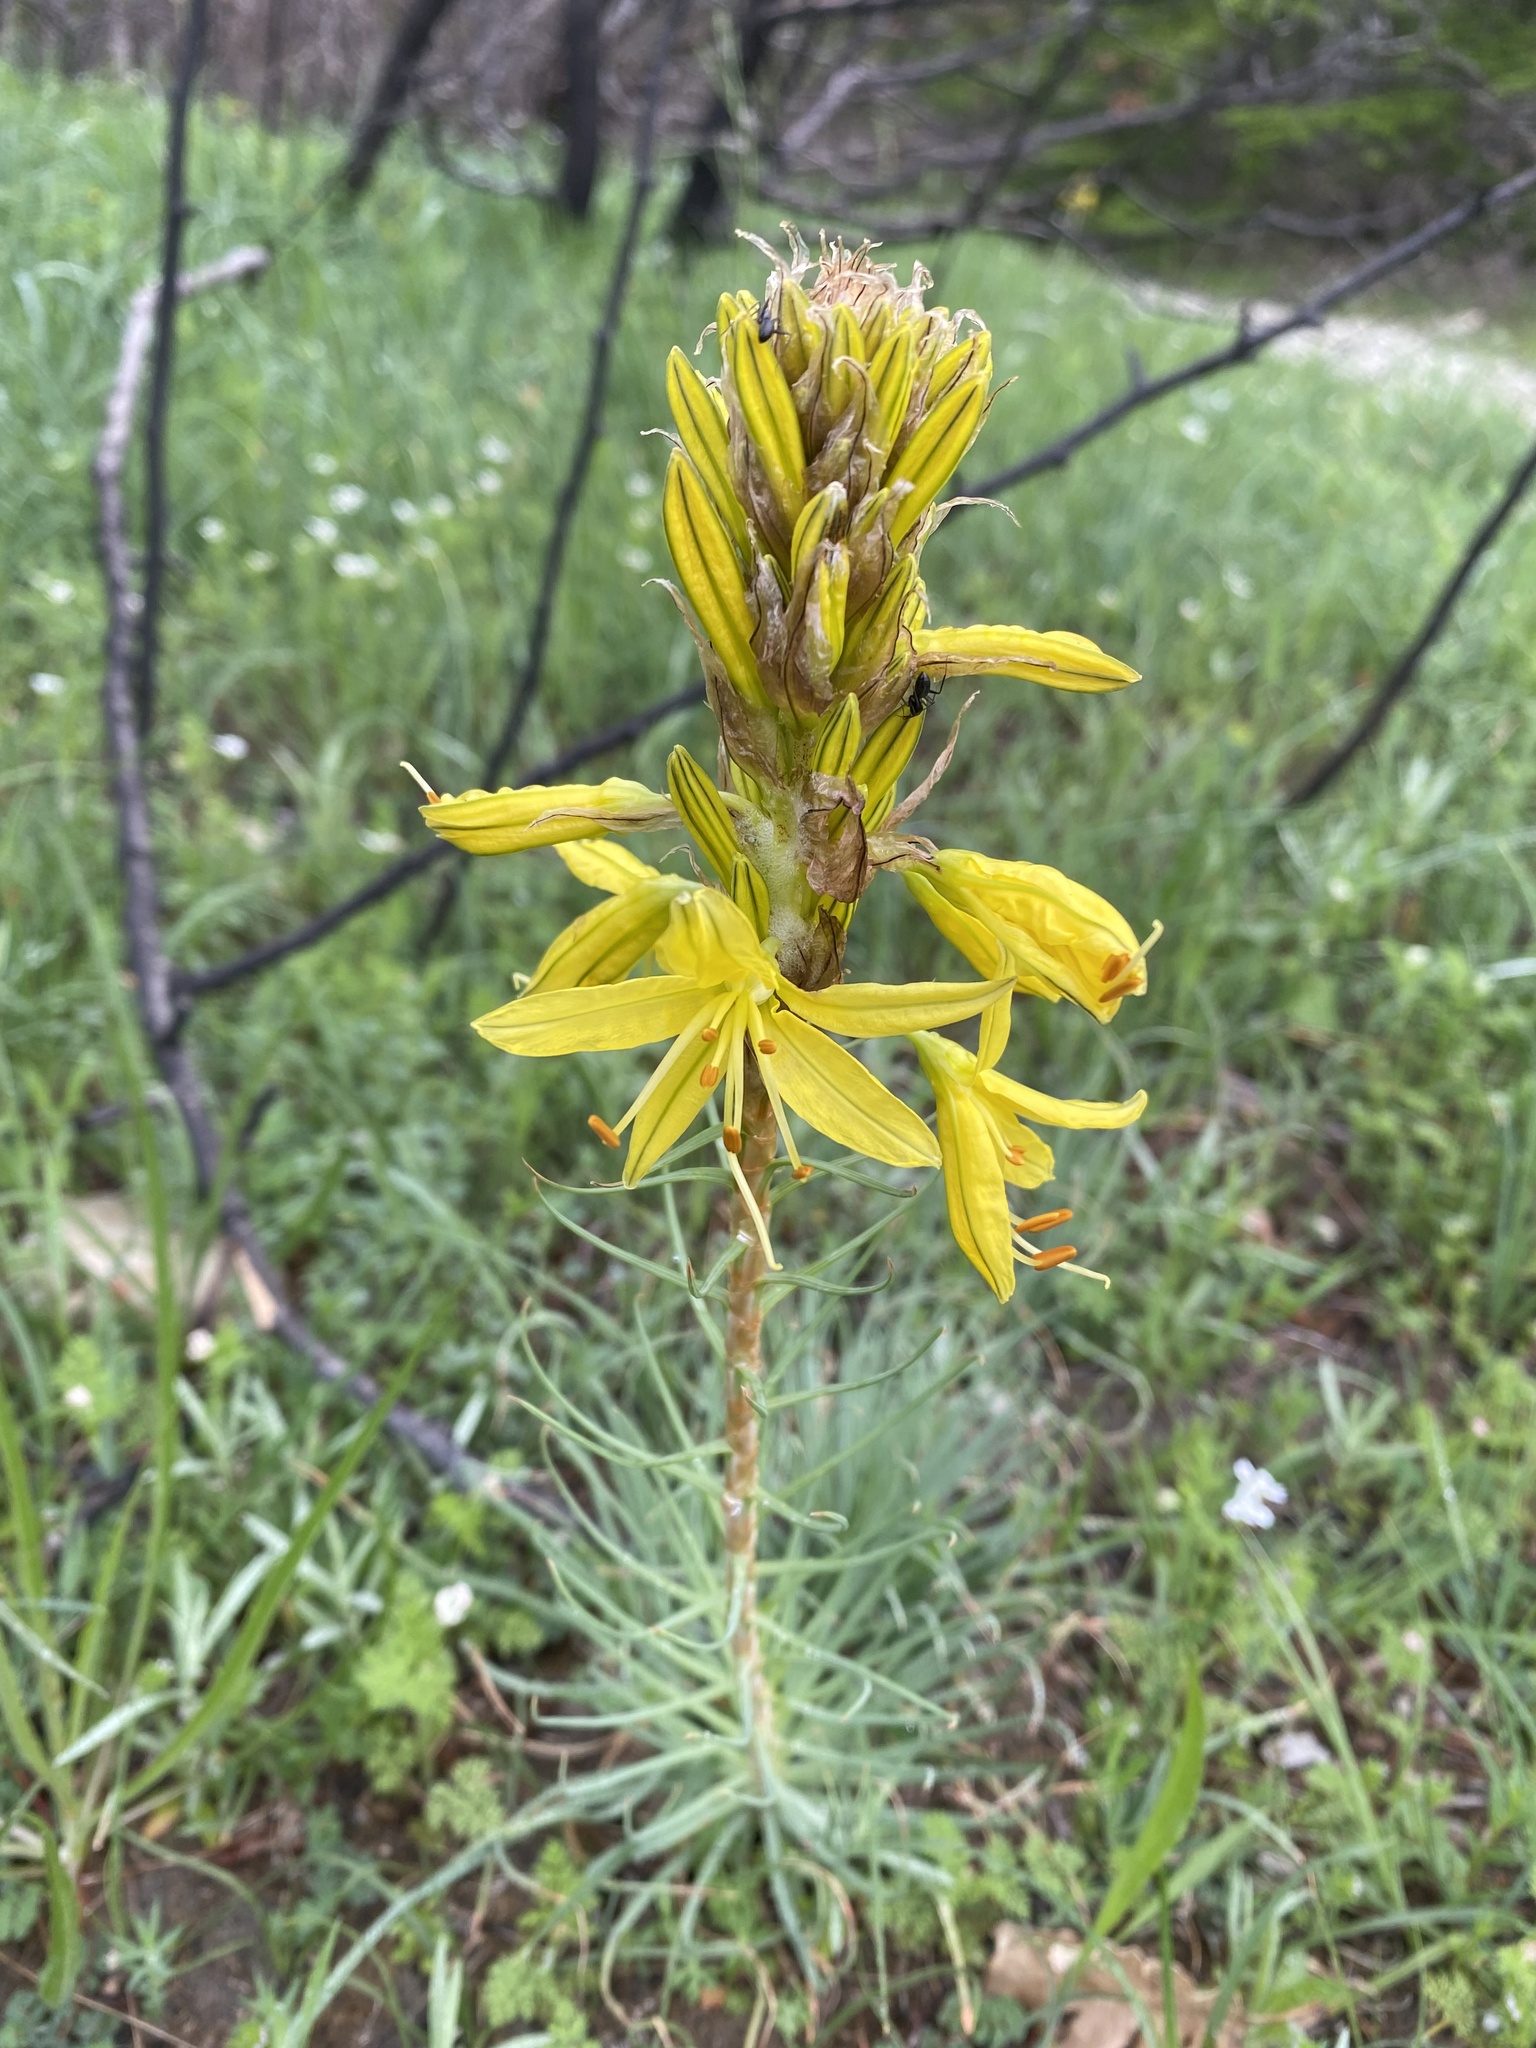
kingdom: Plantae
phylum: Tracheophyta
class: Liliopsida
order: Asparagales
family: Asphodelaceae
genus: Asphodeline
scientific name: Asphodeline lutea
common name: Yellow asphodel
